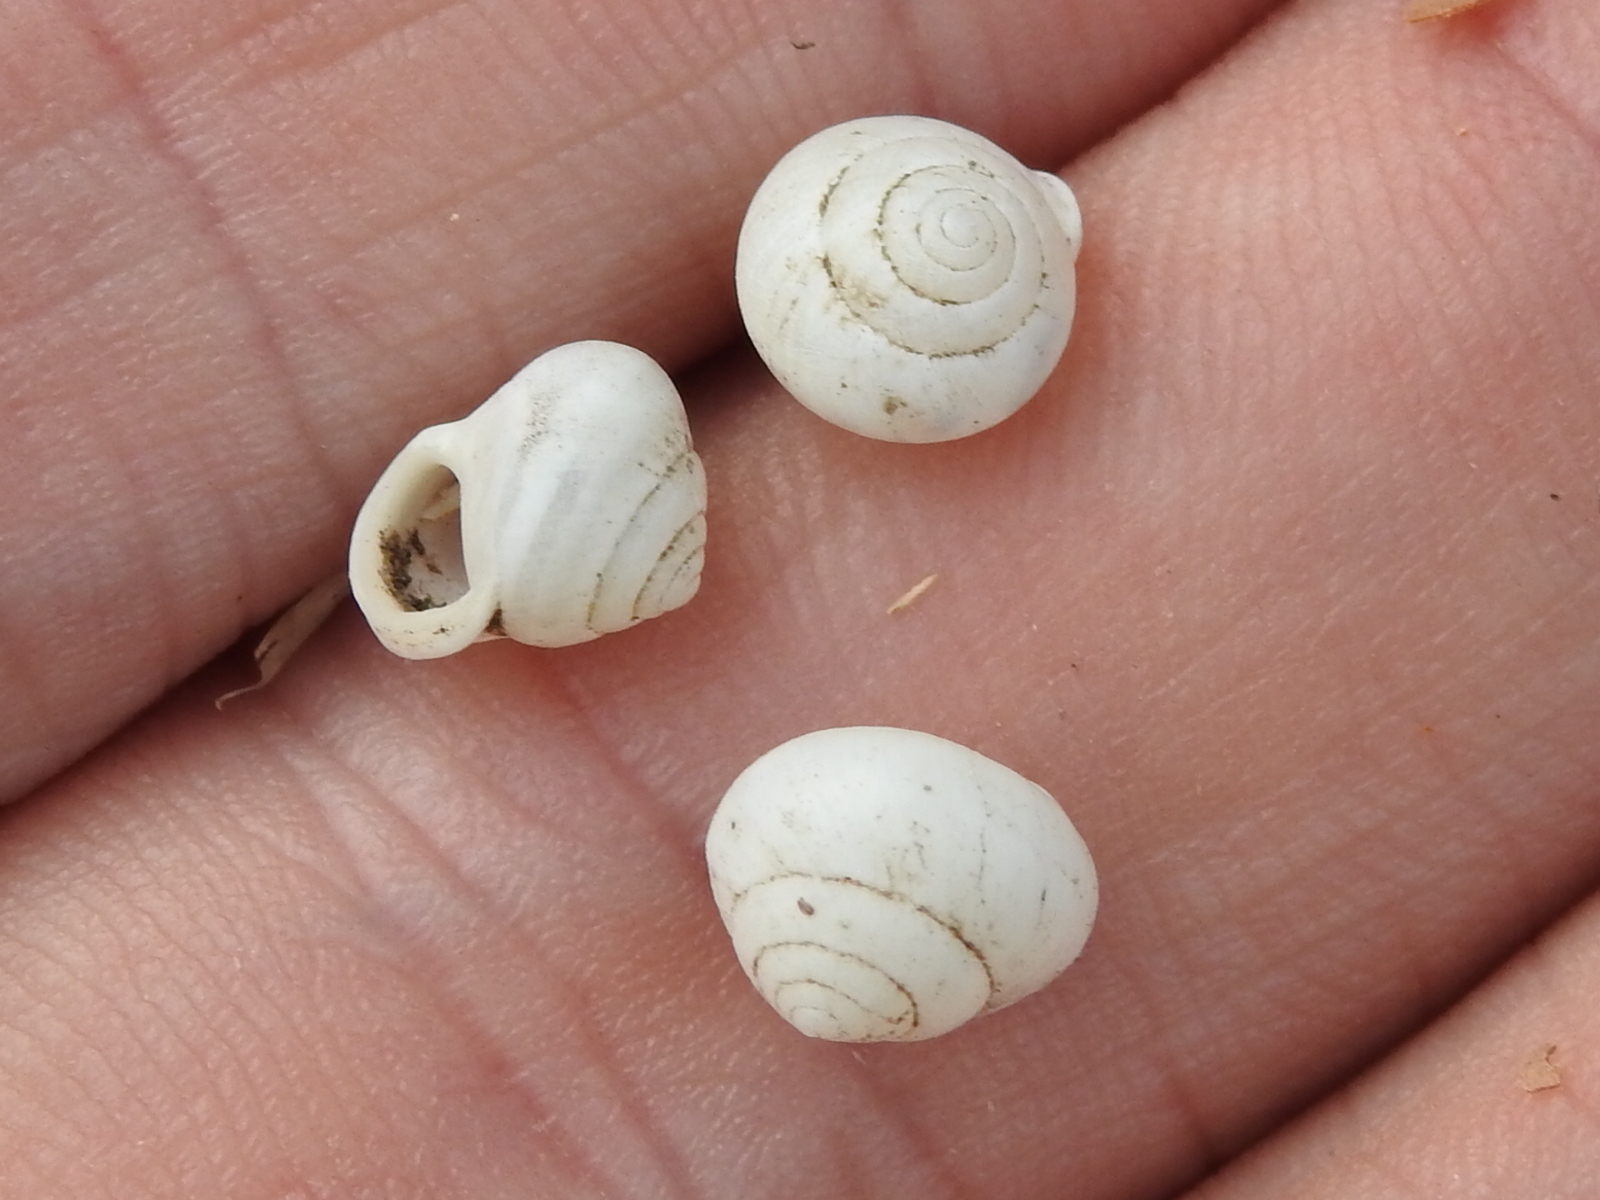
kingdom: Animalia
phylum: Mollusca
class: Gastropoda
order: Cycloneritida
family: Helicinidae
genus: Helicina
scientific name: Helicina orbiculata
